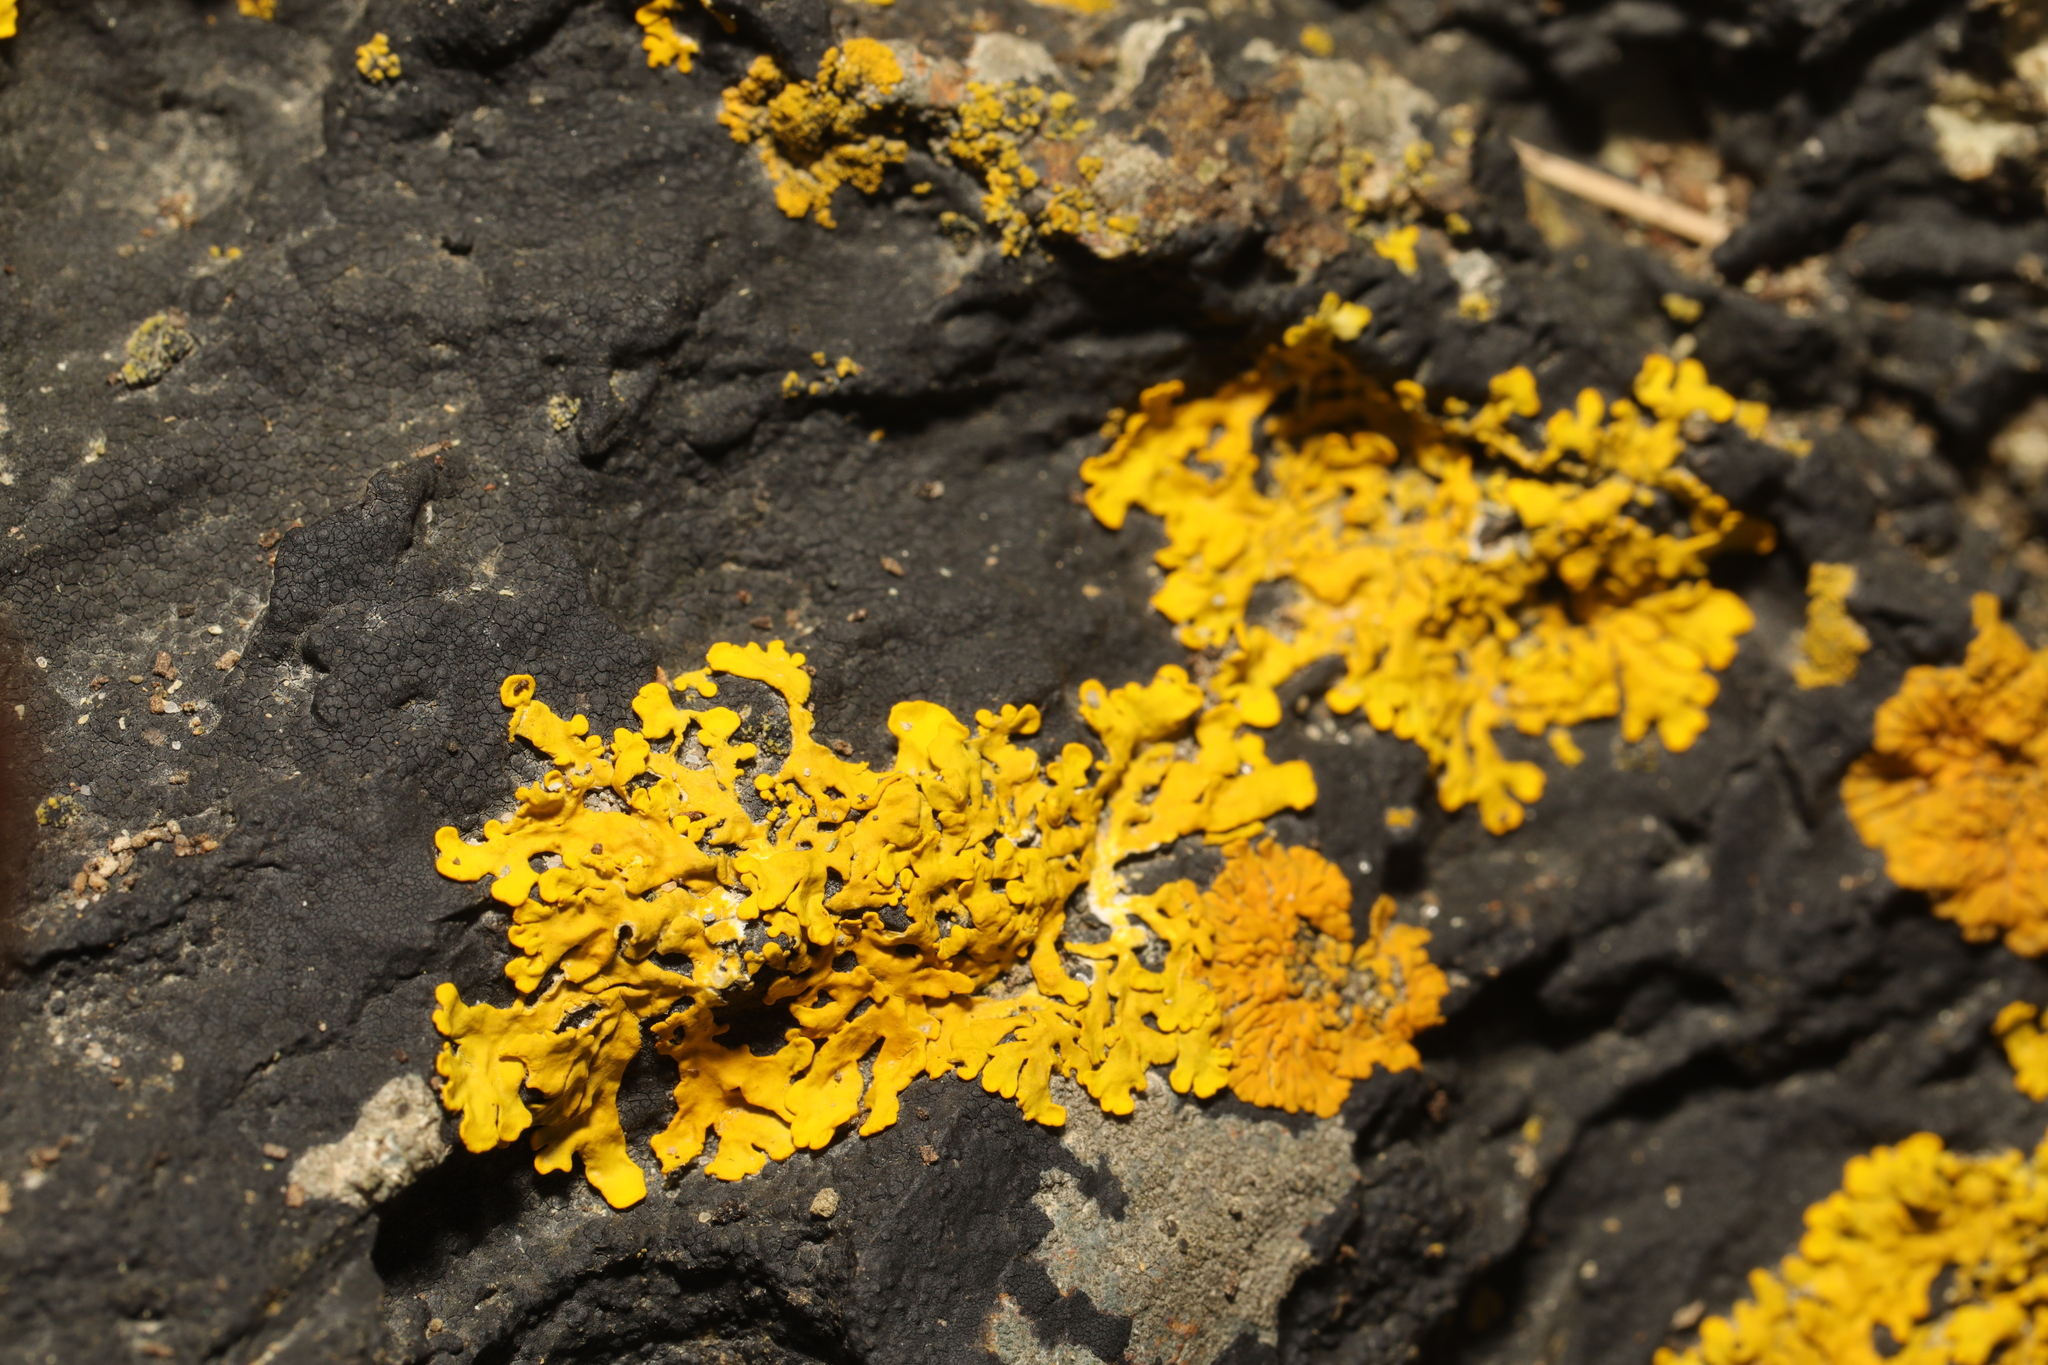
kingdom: Fungi
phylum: Ascomycota
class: Lecanoromycetes
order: Teloschistales
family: Teloschistaceae
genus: Xanthoria
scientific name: Xanthoria aureola
